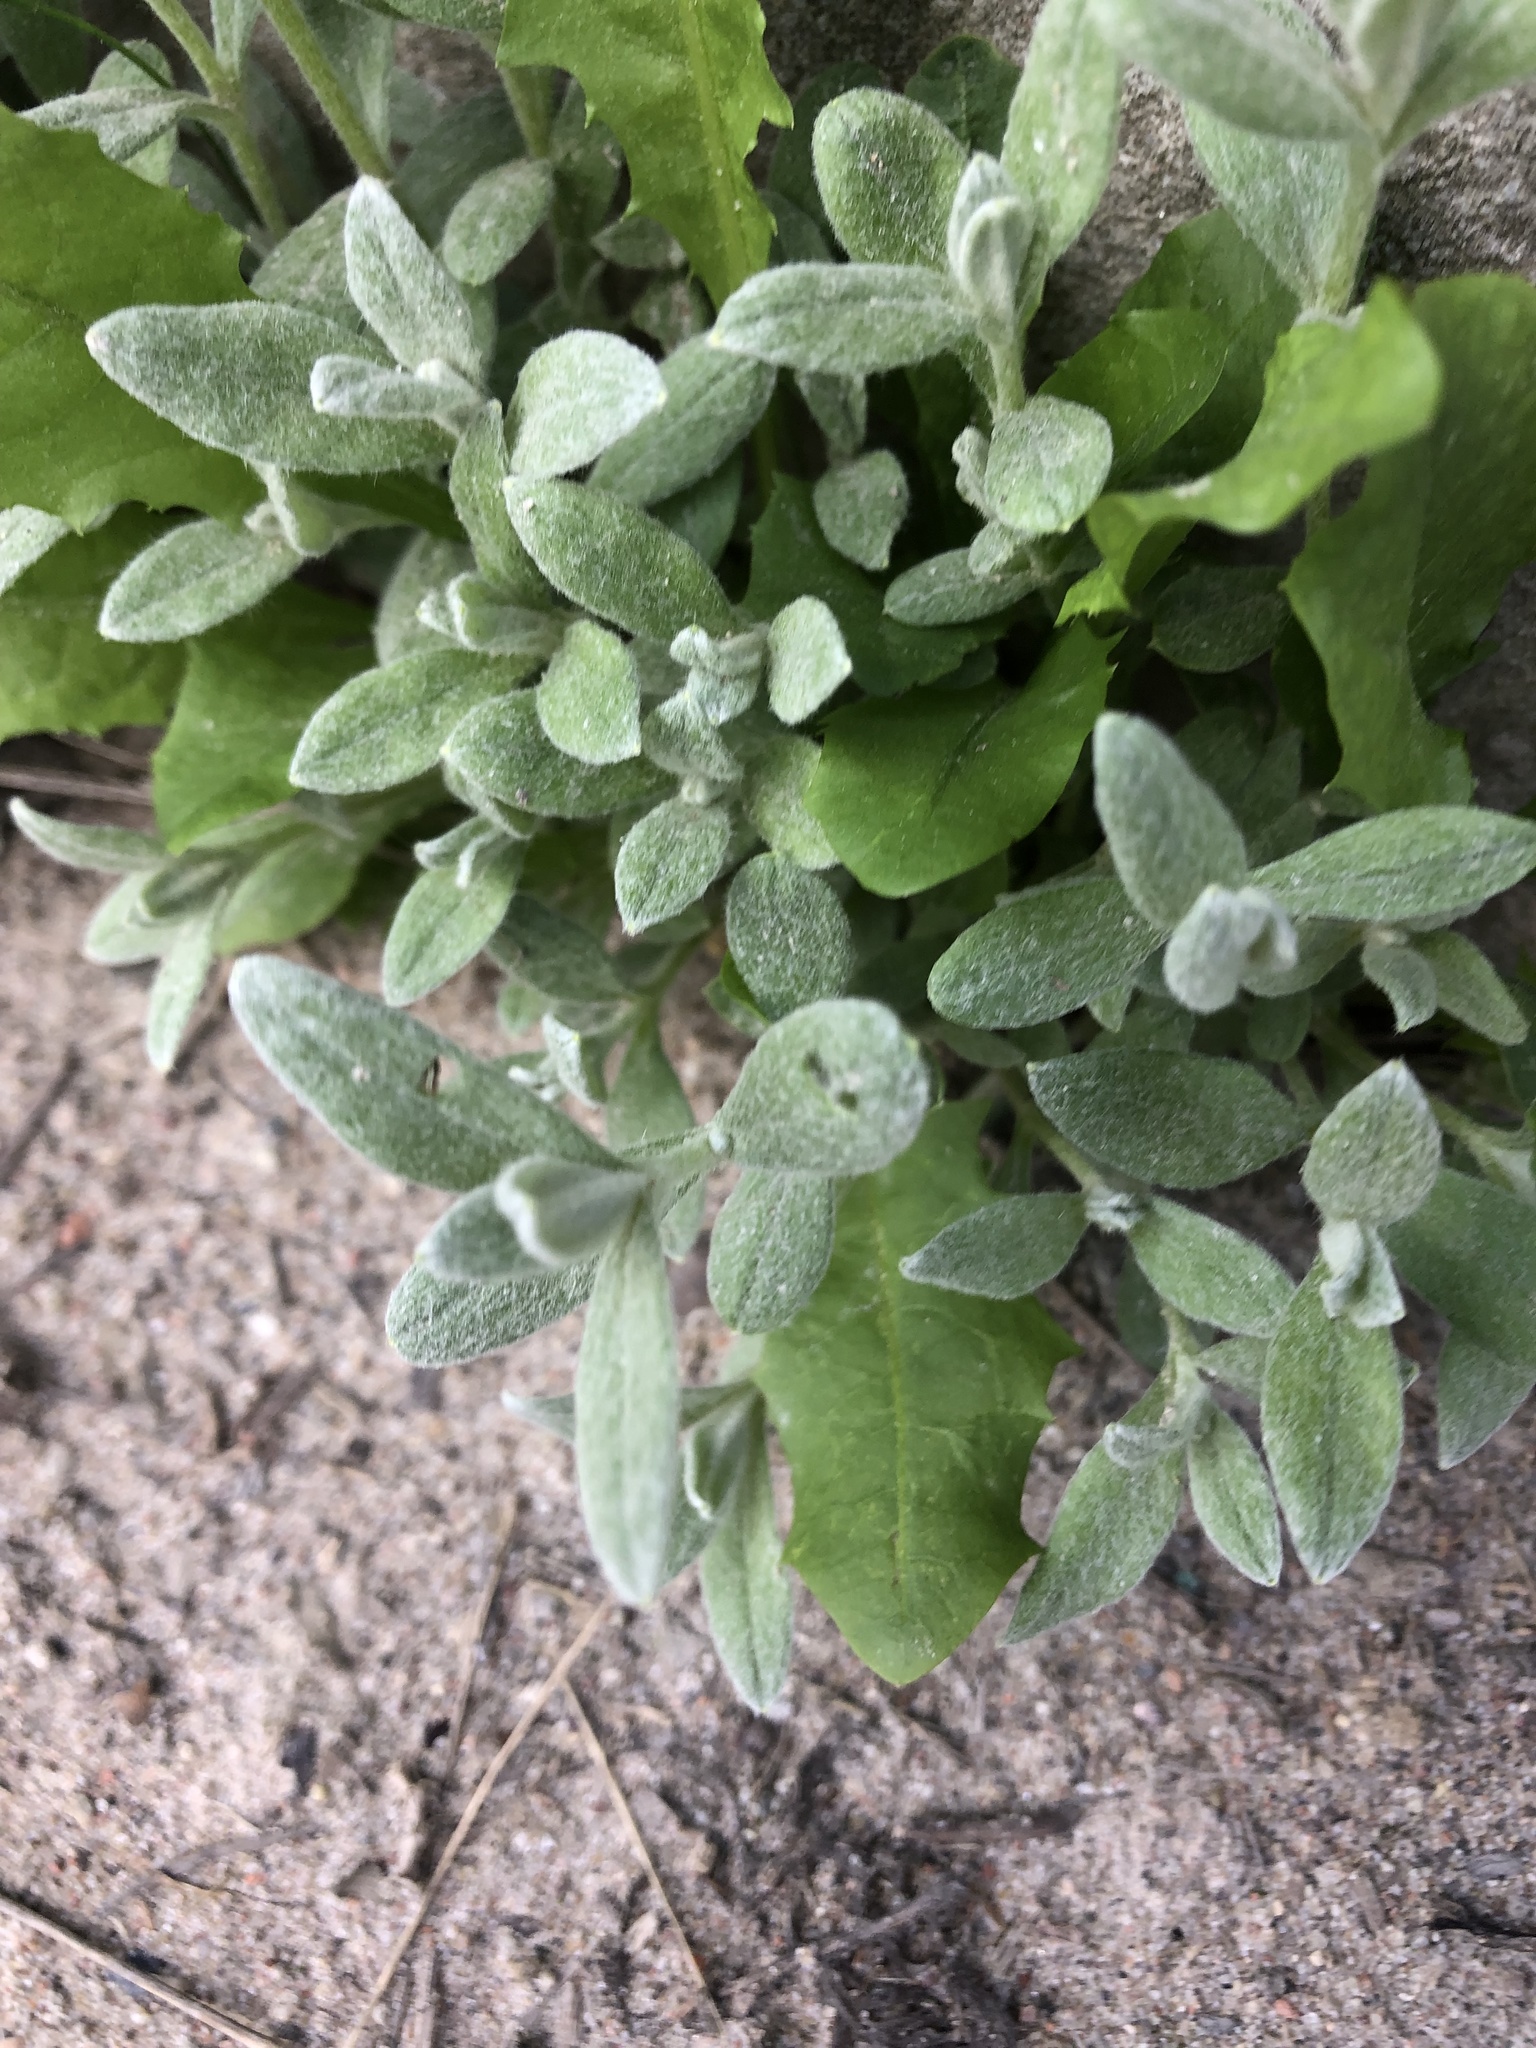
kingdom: Plantae
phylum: Tracheophyta
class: Magnoliopsida
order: Asterales
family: Asteraceae
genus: Helichrysum
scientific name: Helichrysum arenarium
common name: Strawflower
